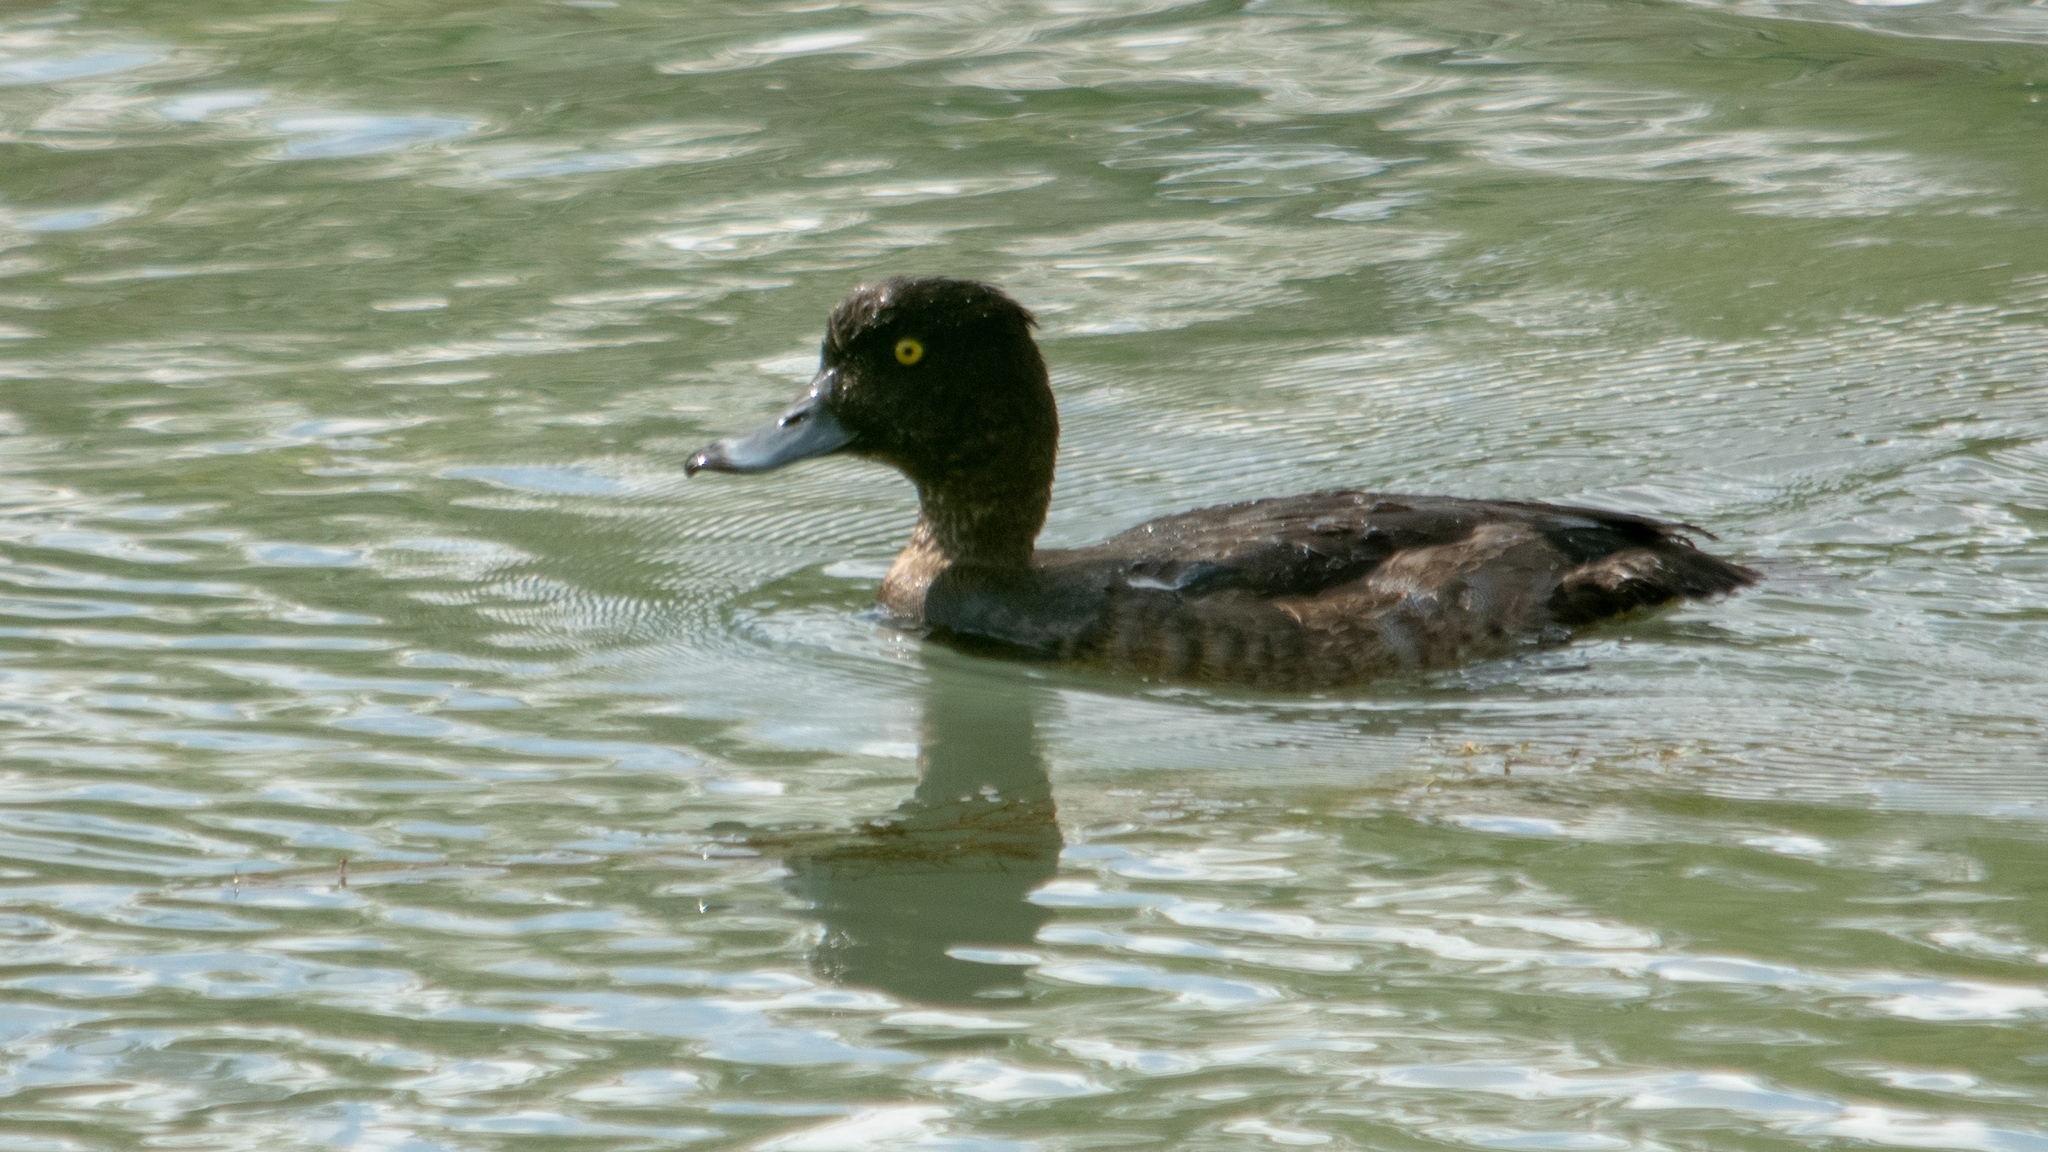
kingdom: Animalia
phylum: Chordata
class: Aves
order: Anseriformes
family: Anatidae
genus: Aythya
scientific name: Aythya fuligula
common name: Tufted duck
